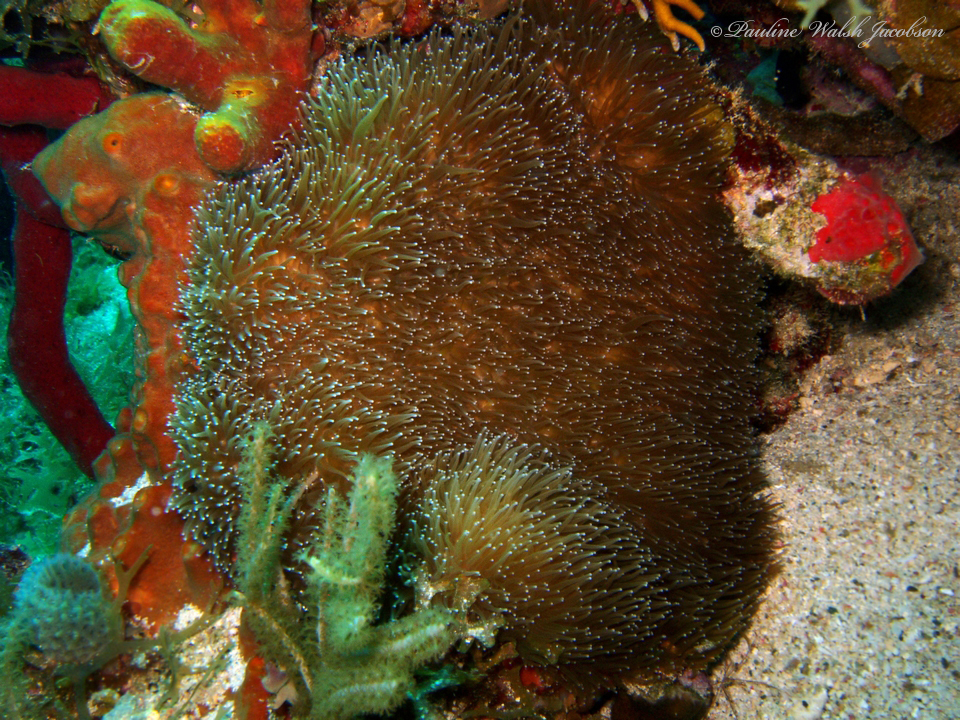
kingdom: Animalia
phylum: Cnidaria
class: Anthozoa
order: Scleractinia
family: Meandrinidae
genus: Dendrogyra
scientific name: Dendrogyra cylindrus
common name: Pillar coral
